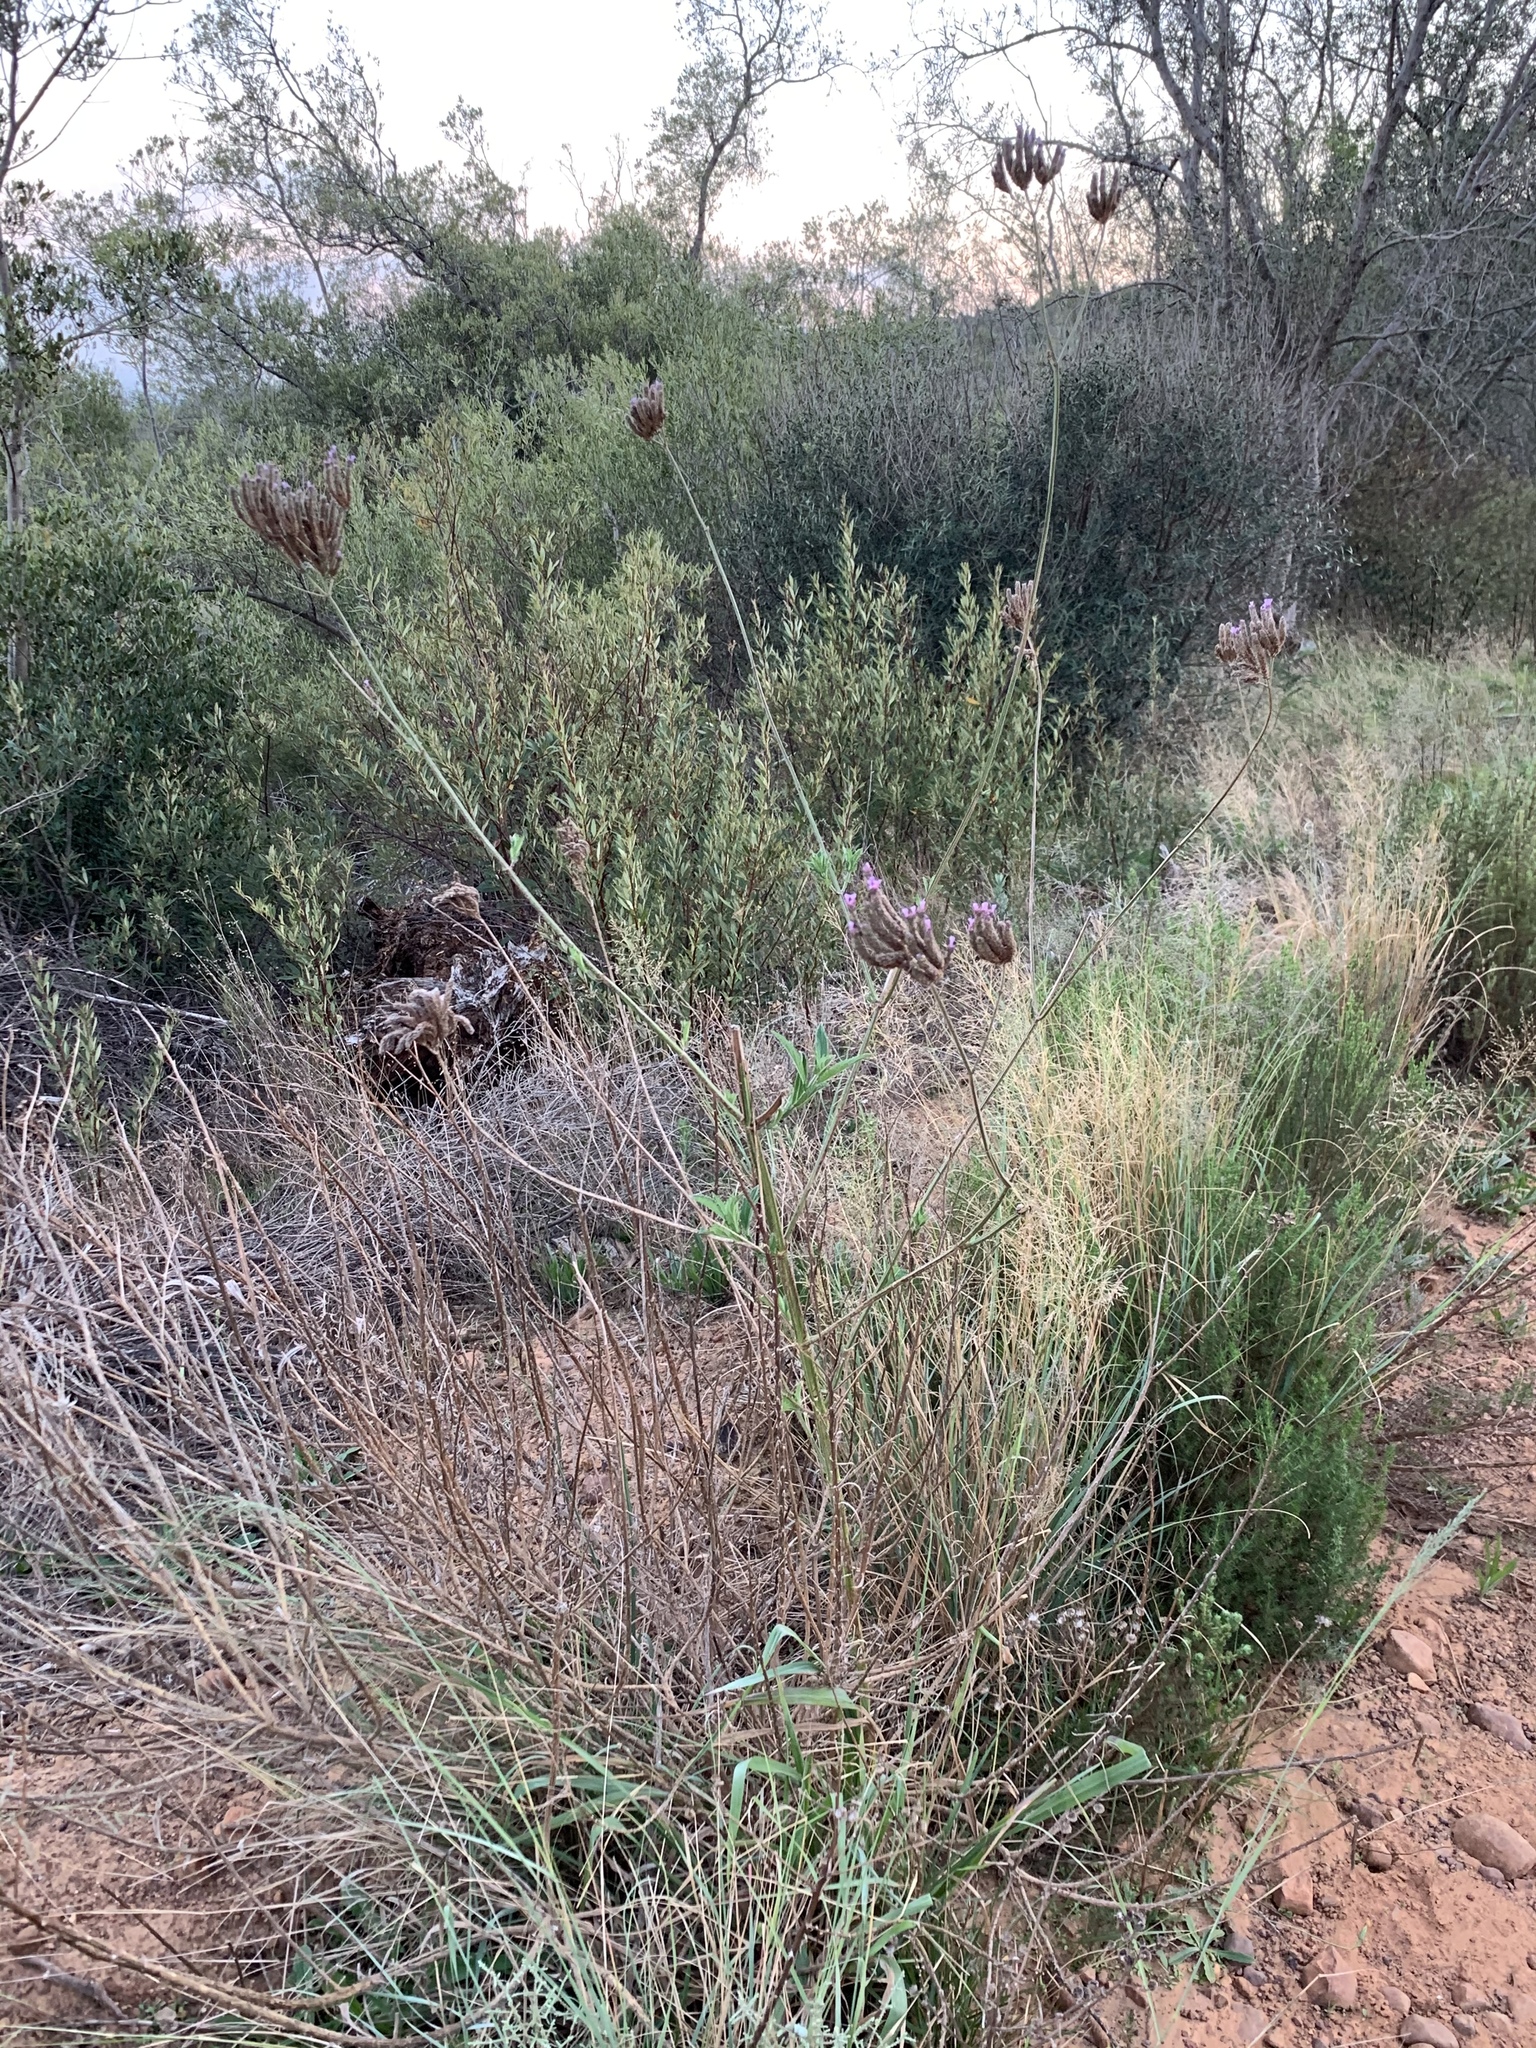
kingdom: Plantae
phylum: Tracheophyta
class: Magnoliopsida
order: Lamiales
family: Verbenaceae
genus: Verbena
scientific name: Verbena bonariensis
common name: Purpletop vervain
